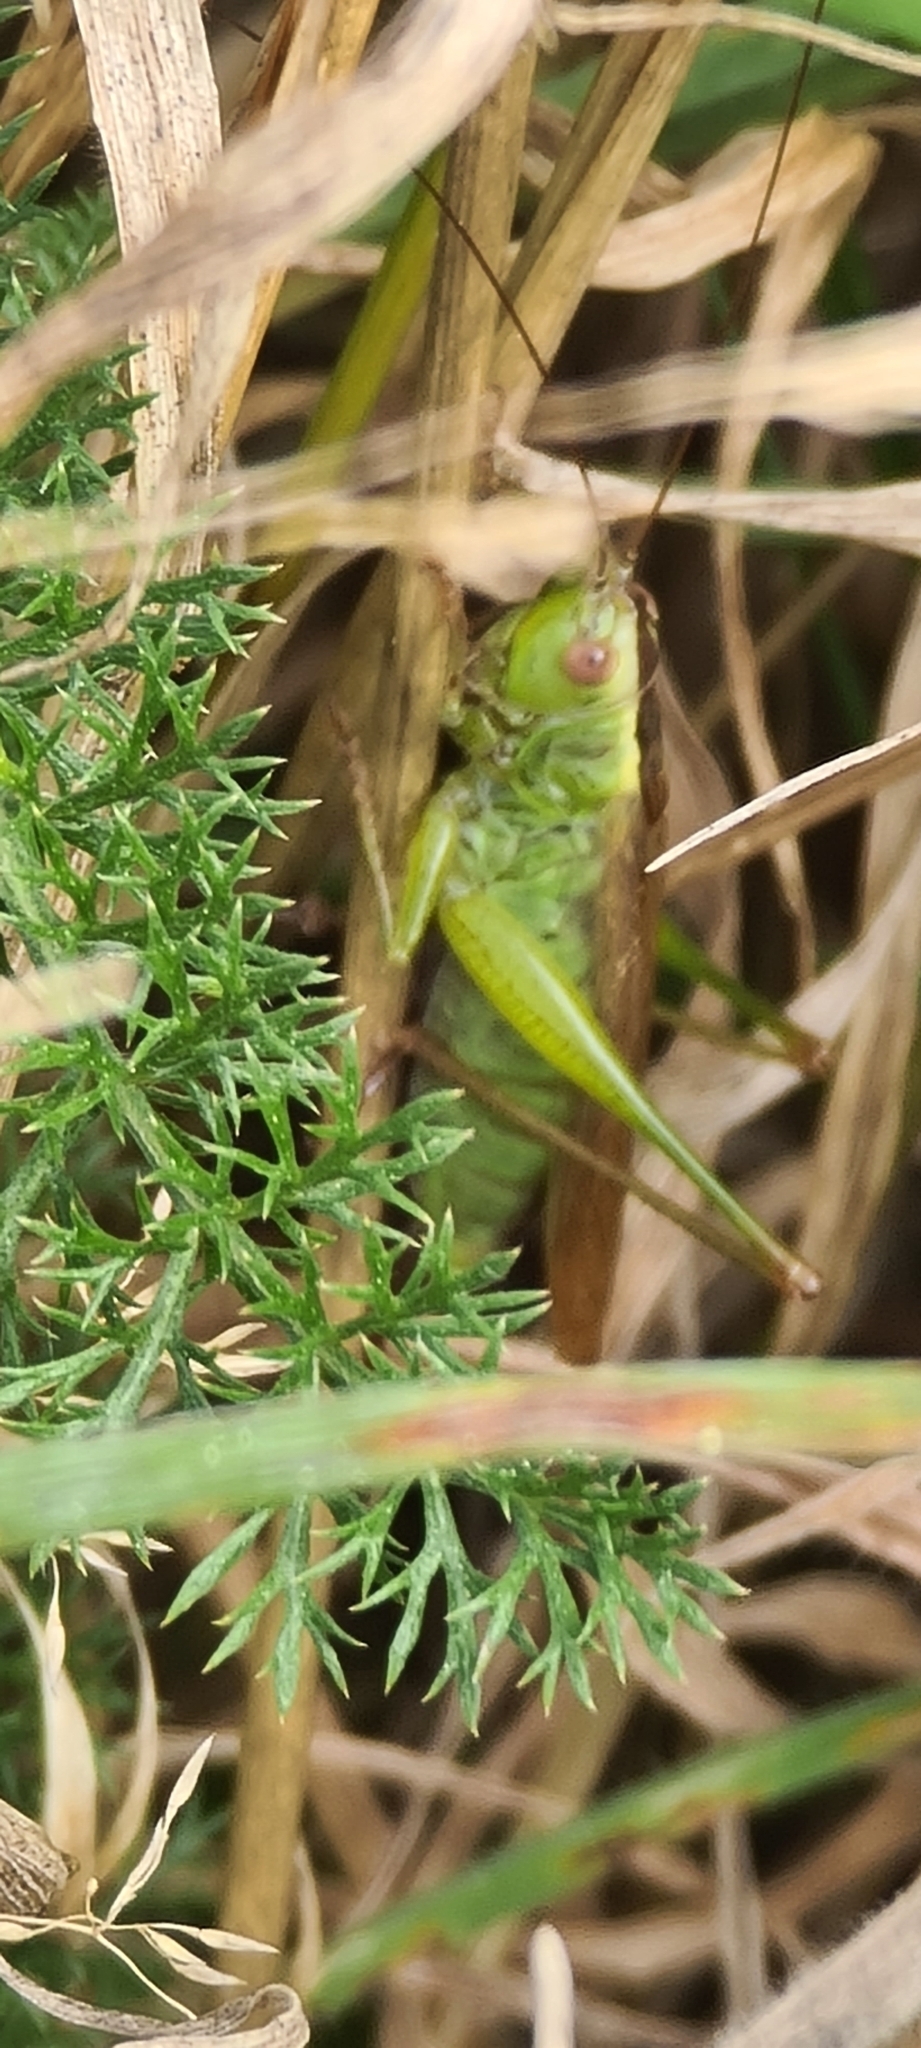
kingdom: Animalia
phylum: Arthropoda
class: Insecta
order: Orthoptera
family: Tettigoniidae
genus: Conocephalus
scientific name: Conocephalus fuscus
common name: Long-winged conehead
